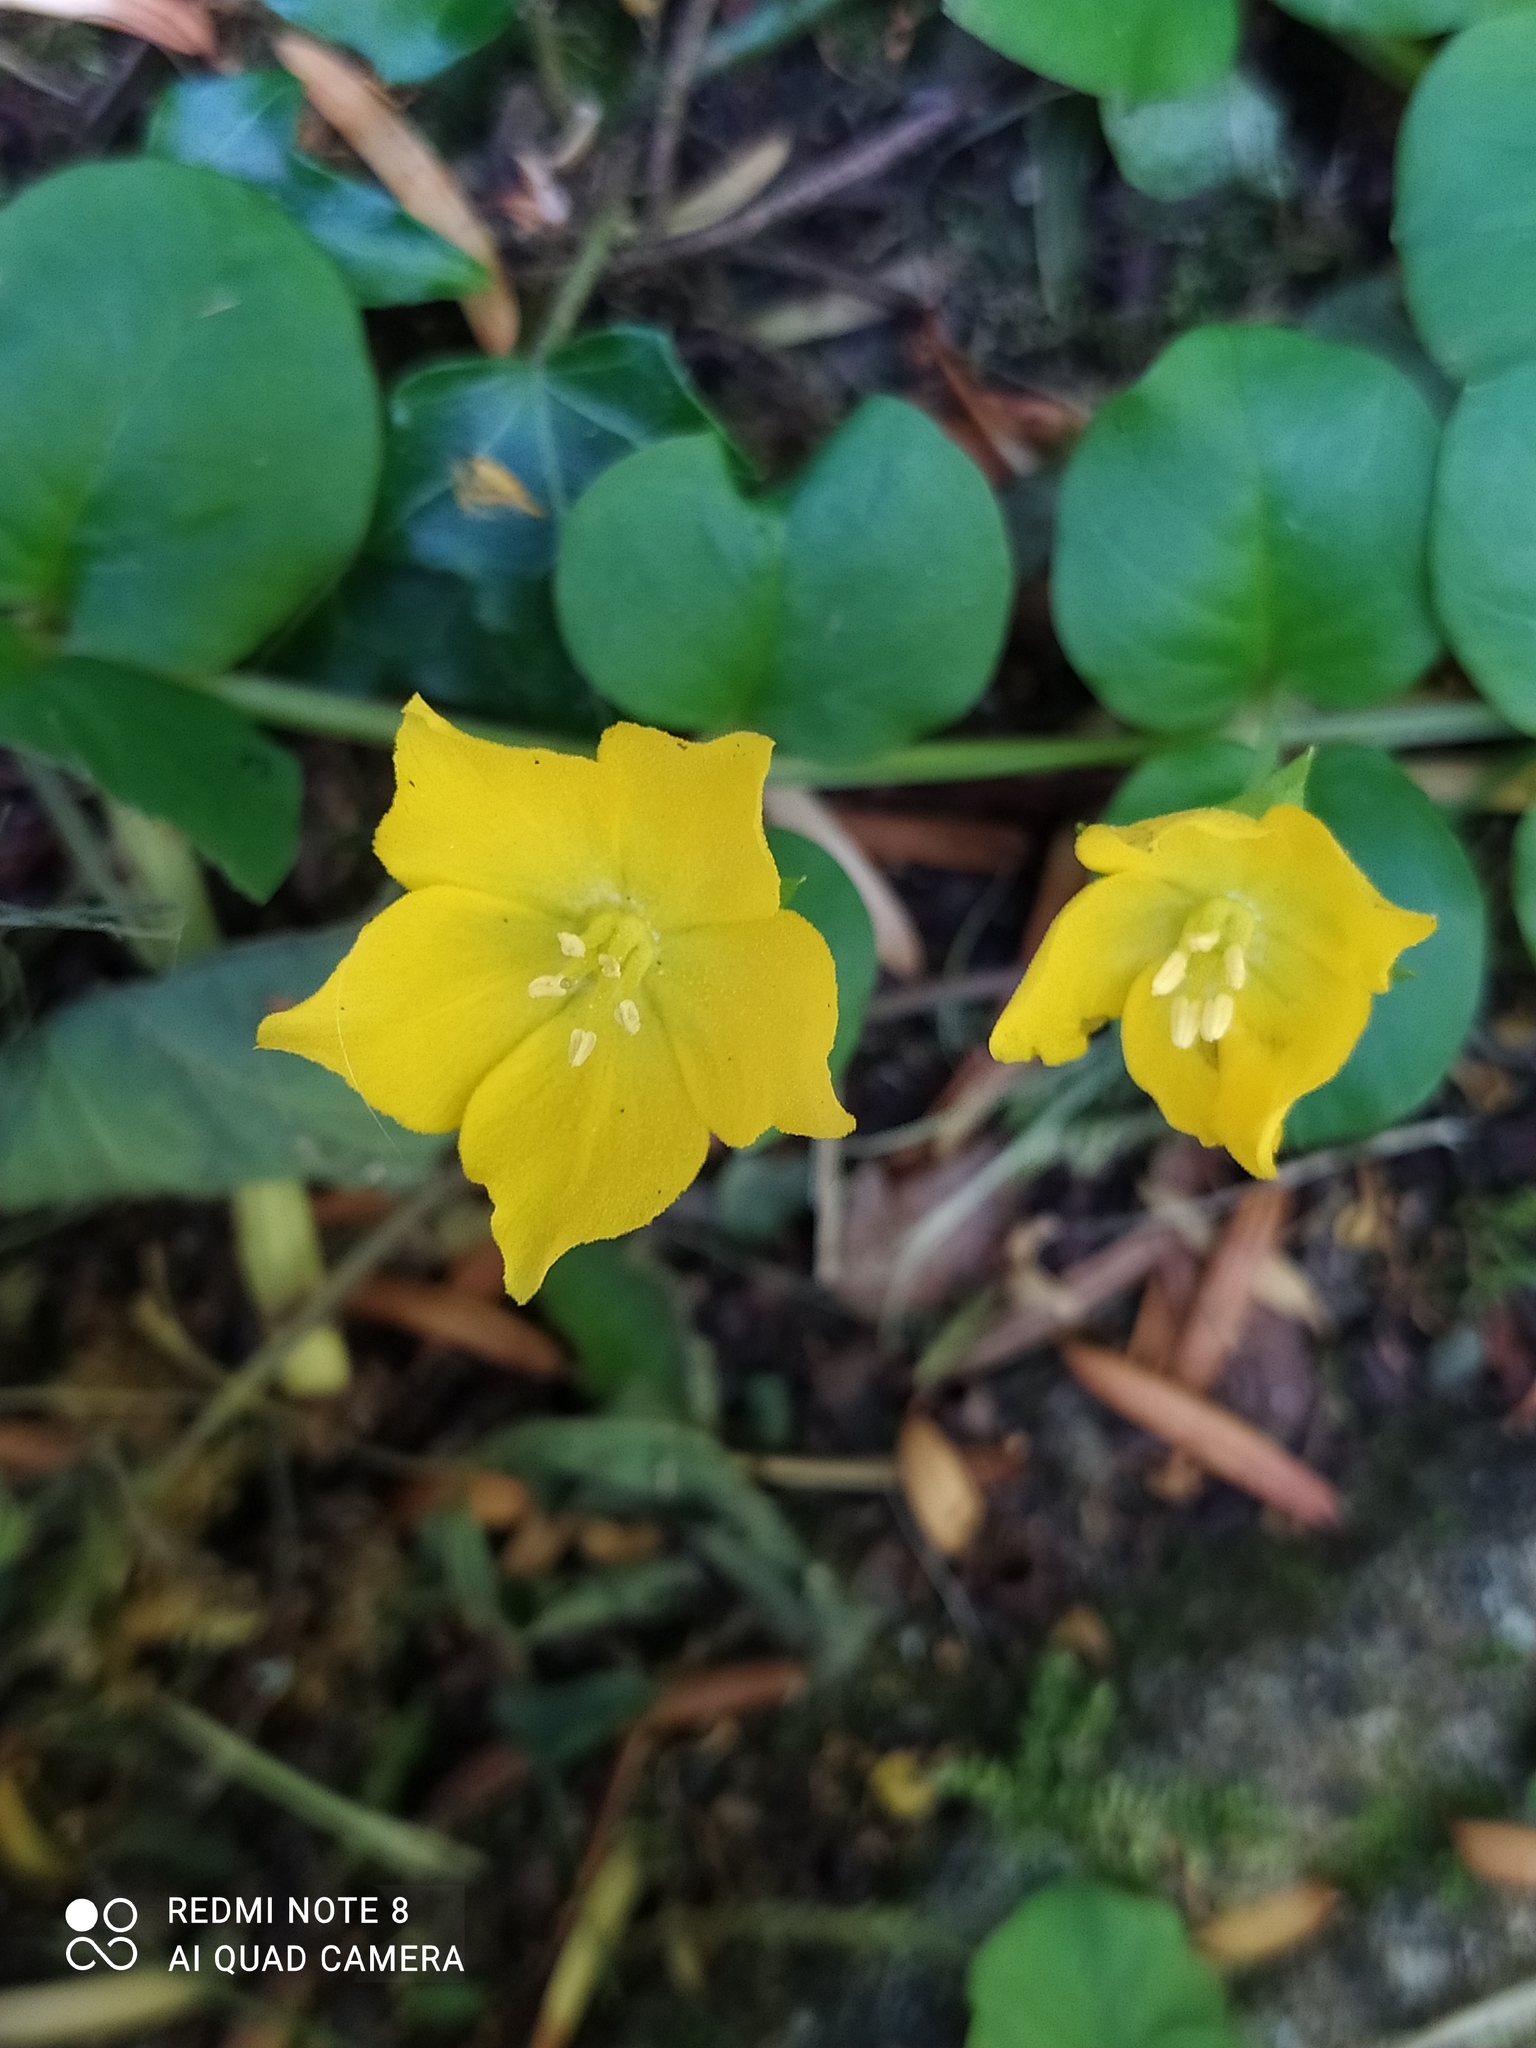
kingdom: Plantae
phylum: Tracheophyta
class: Magnoliopsida
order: Ericales
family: Primulaceae
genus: Lysimachia
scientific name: Lysimachia nummularia
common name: Moneywort
